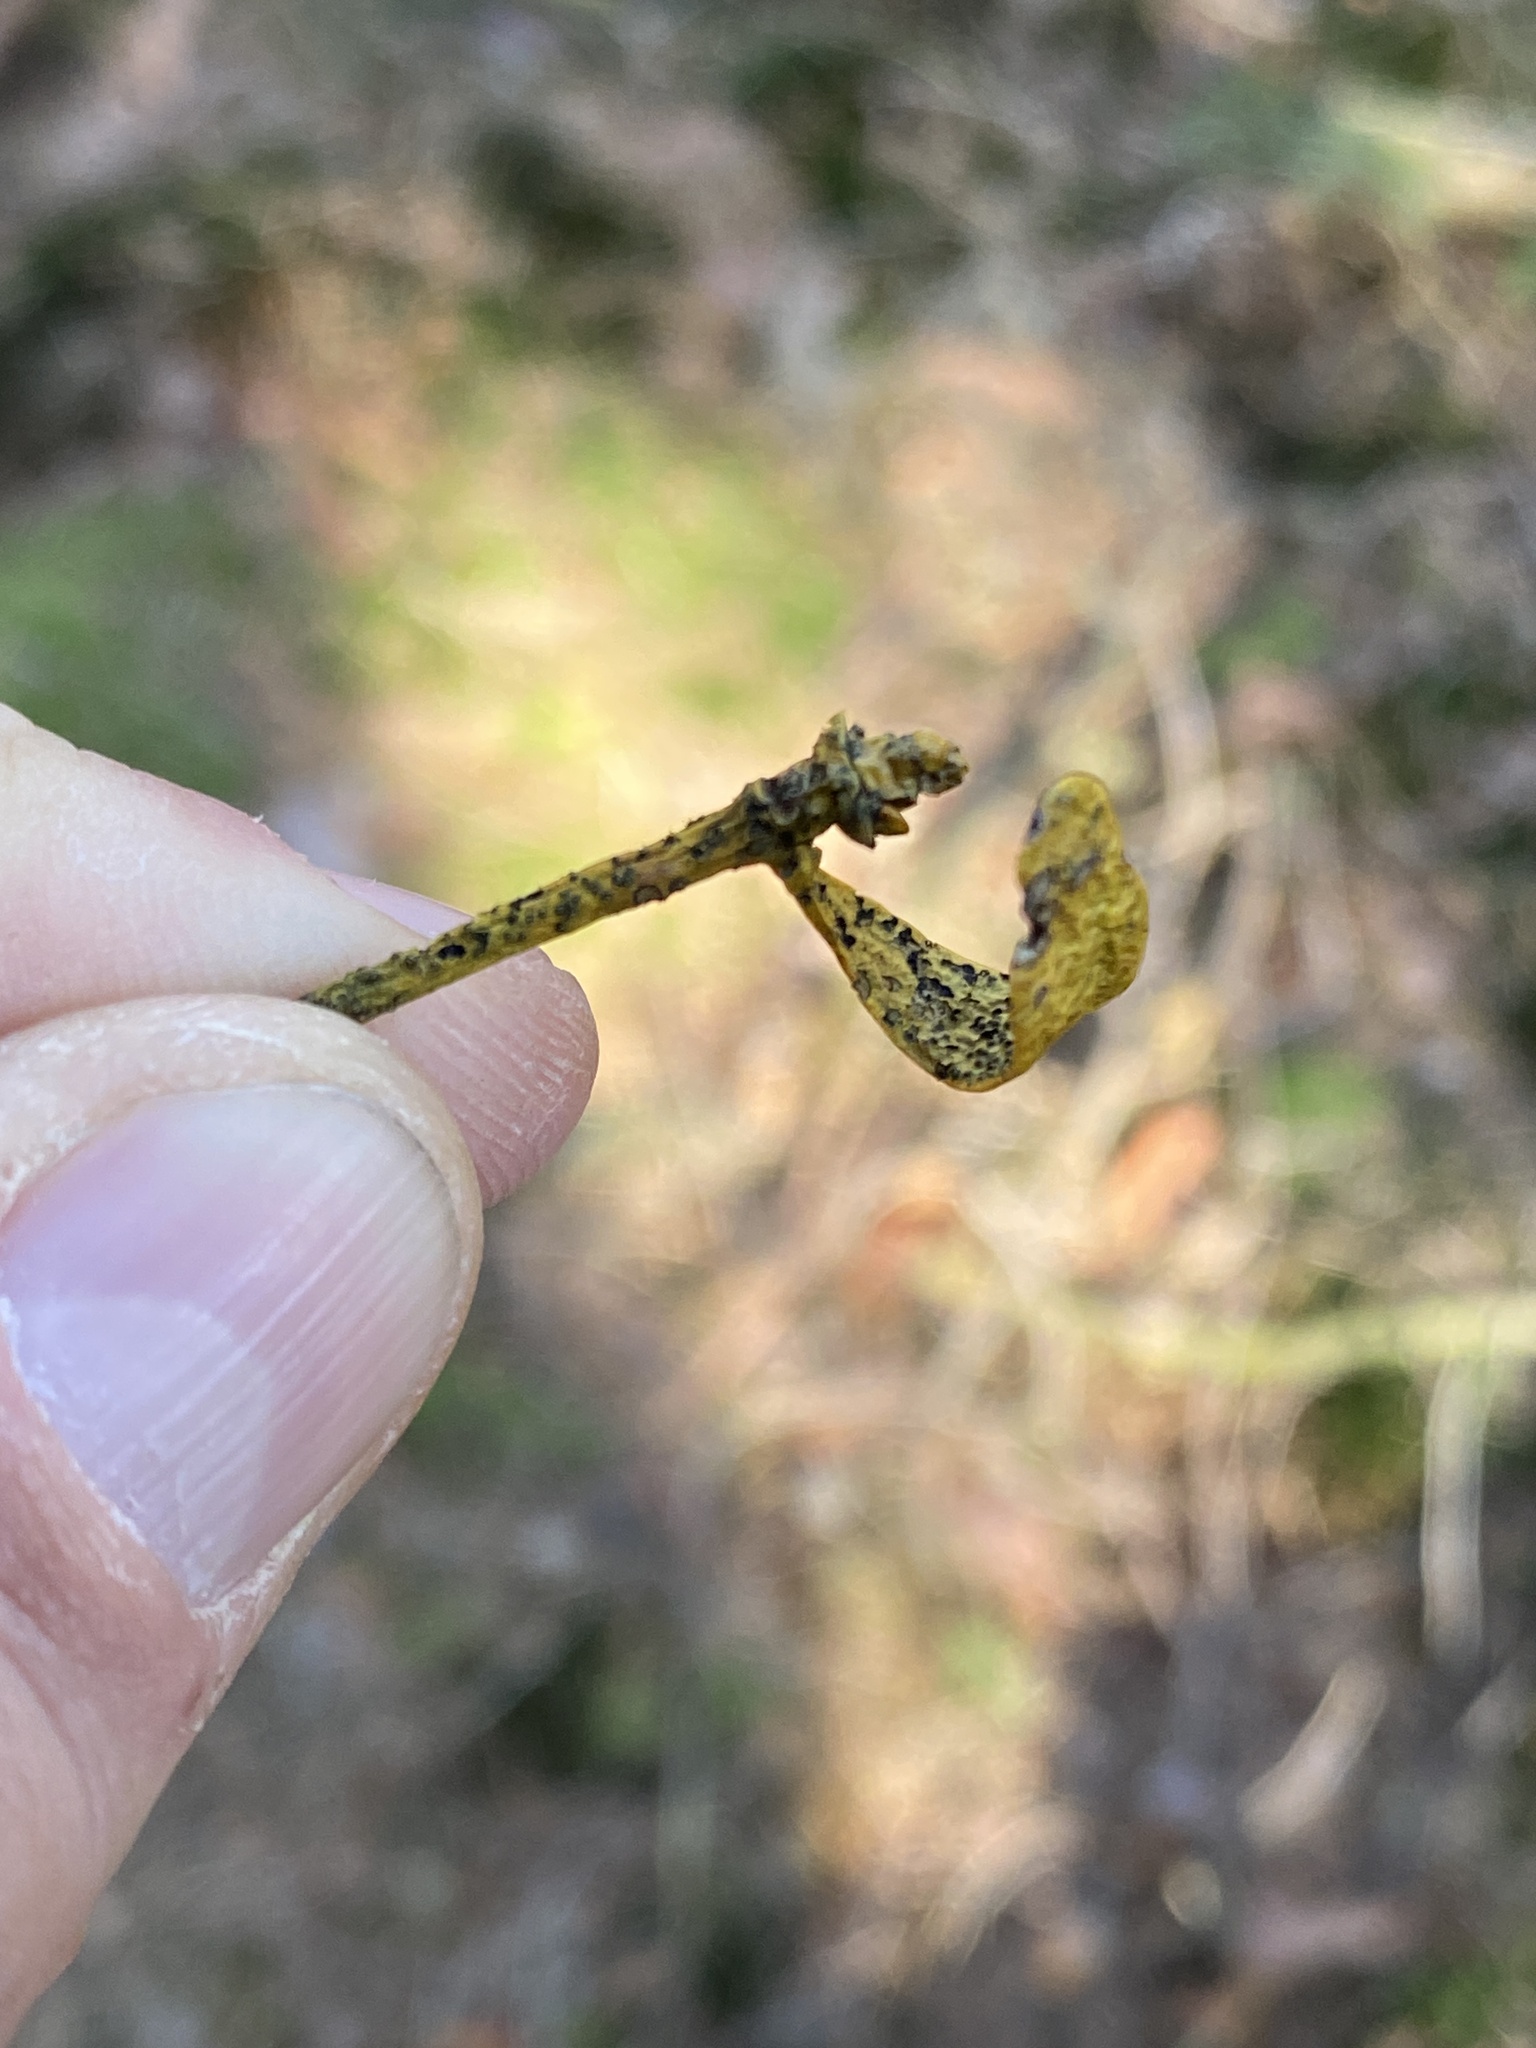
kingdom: Fungi
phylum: Ascomycota
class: Dothideomycetes
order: Botryosphaeriales
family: Botryosphaeriaceae
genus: Botryosphaeria
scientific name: Botryosphaeria visci
